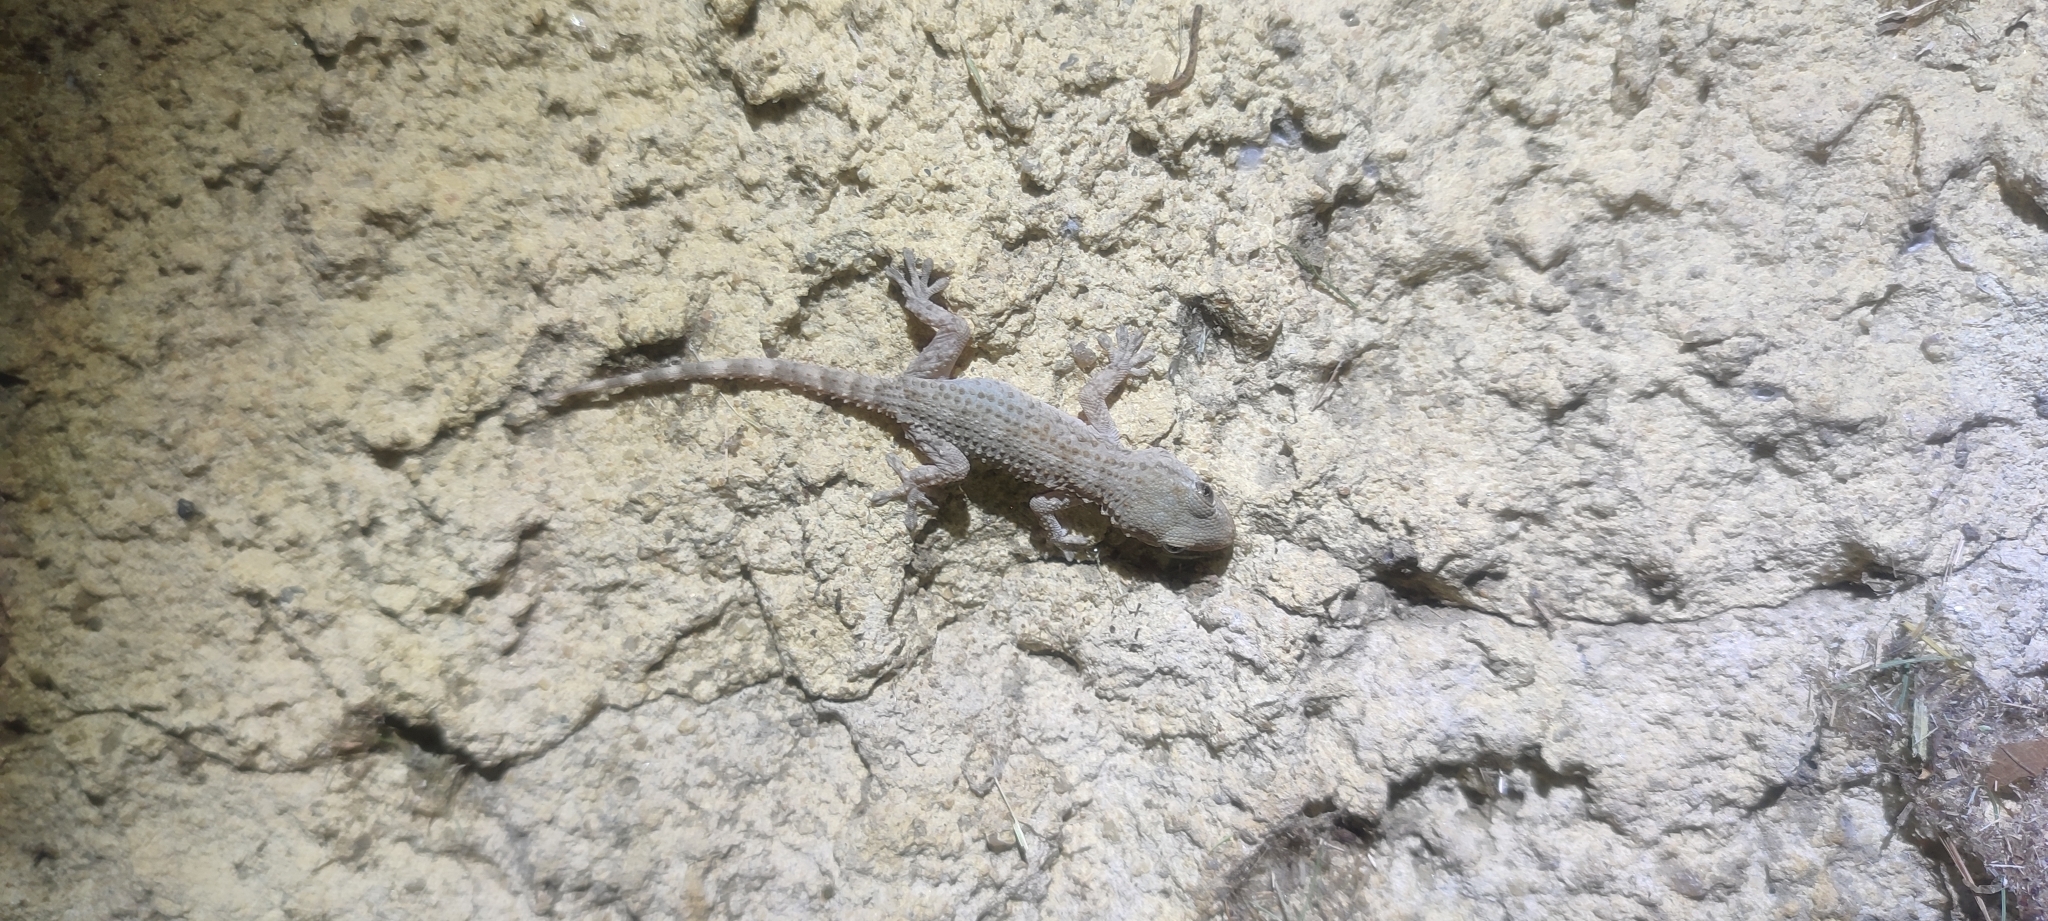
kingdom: Animalia
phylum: Chordata
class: Squamata
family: Phyllodactylidae
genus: Tarentola
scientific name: Tarentola mauritanica
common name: Moorish gecko
